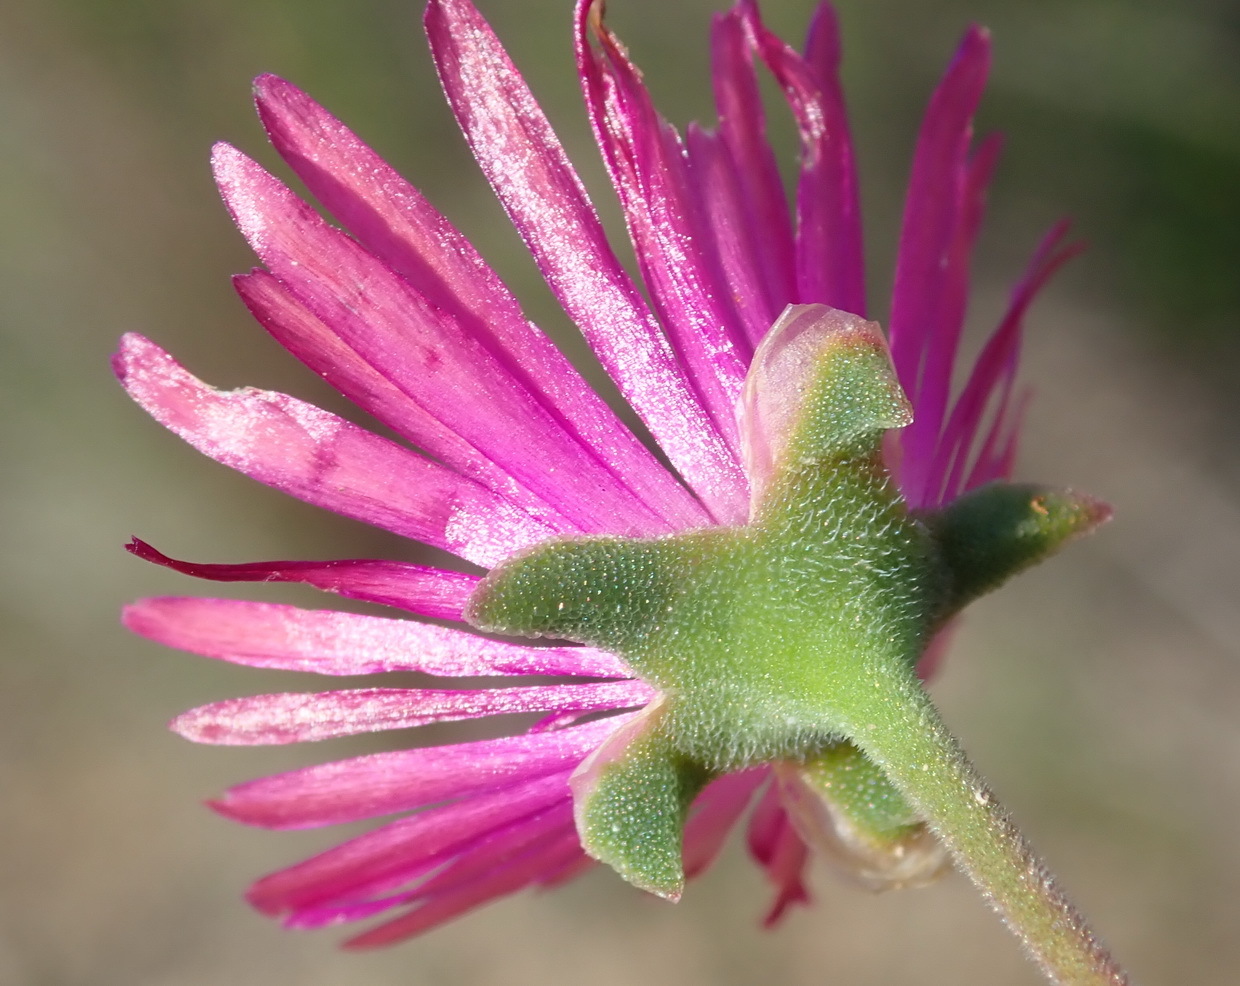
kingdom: Plantae
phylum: Tracheophyta
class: Magnoliopsida
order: Caryophyllales
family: Aizoaceae
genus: Delosperma
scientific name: Delosperma neethlingiae
